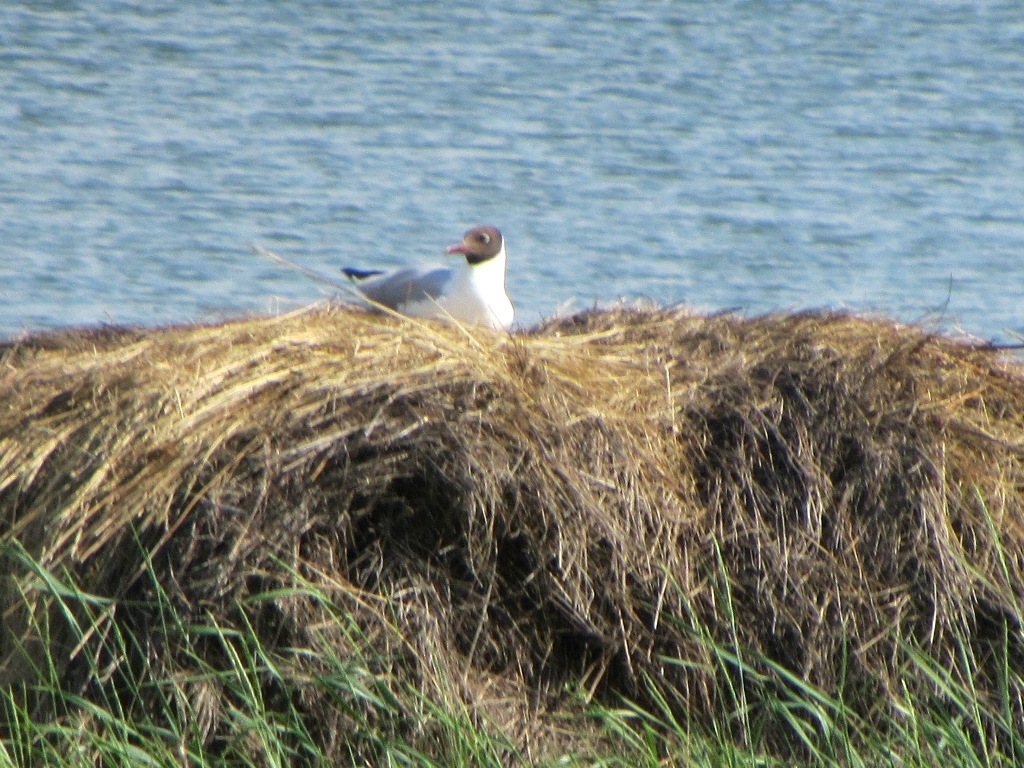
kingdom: Animalia
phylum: Chordata
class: Aves
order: Charadriiformes
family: Laridae
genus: Chroicocephalus
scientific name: Chroicocephalus ridibundus
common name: Black-headed gull
